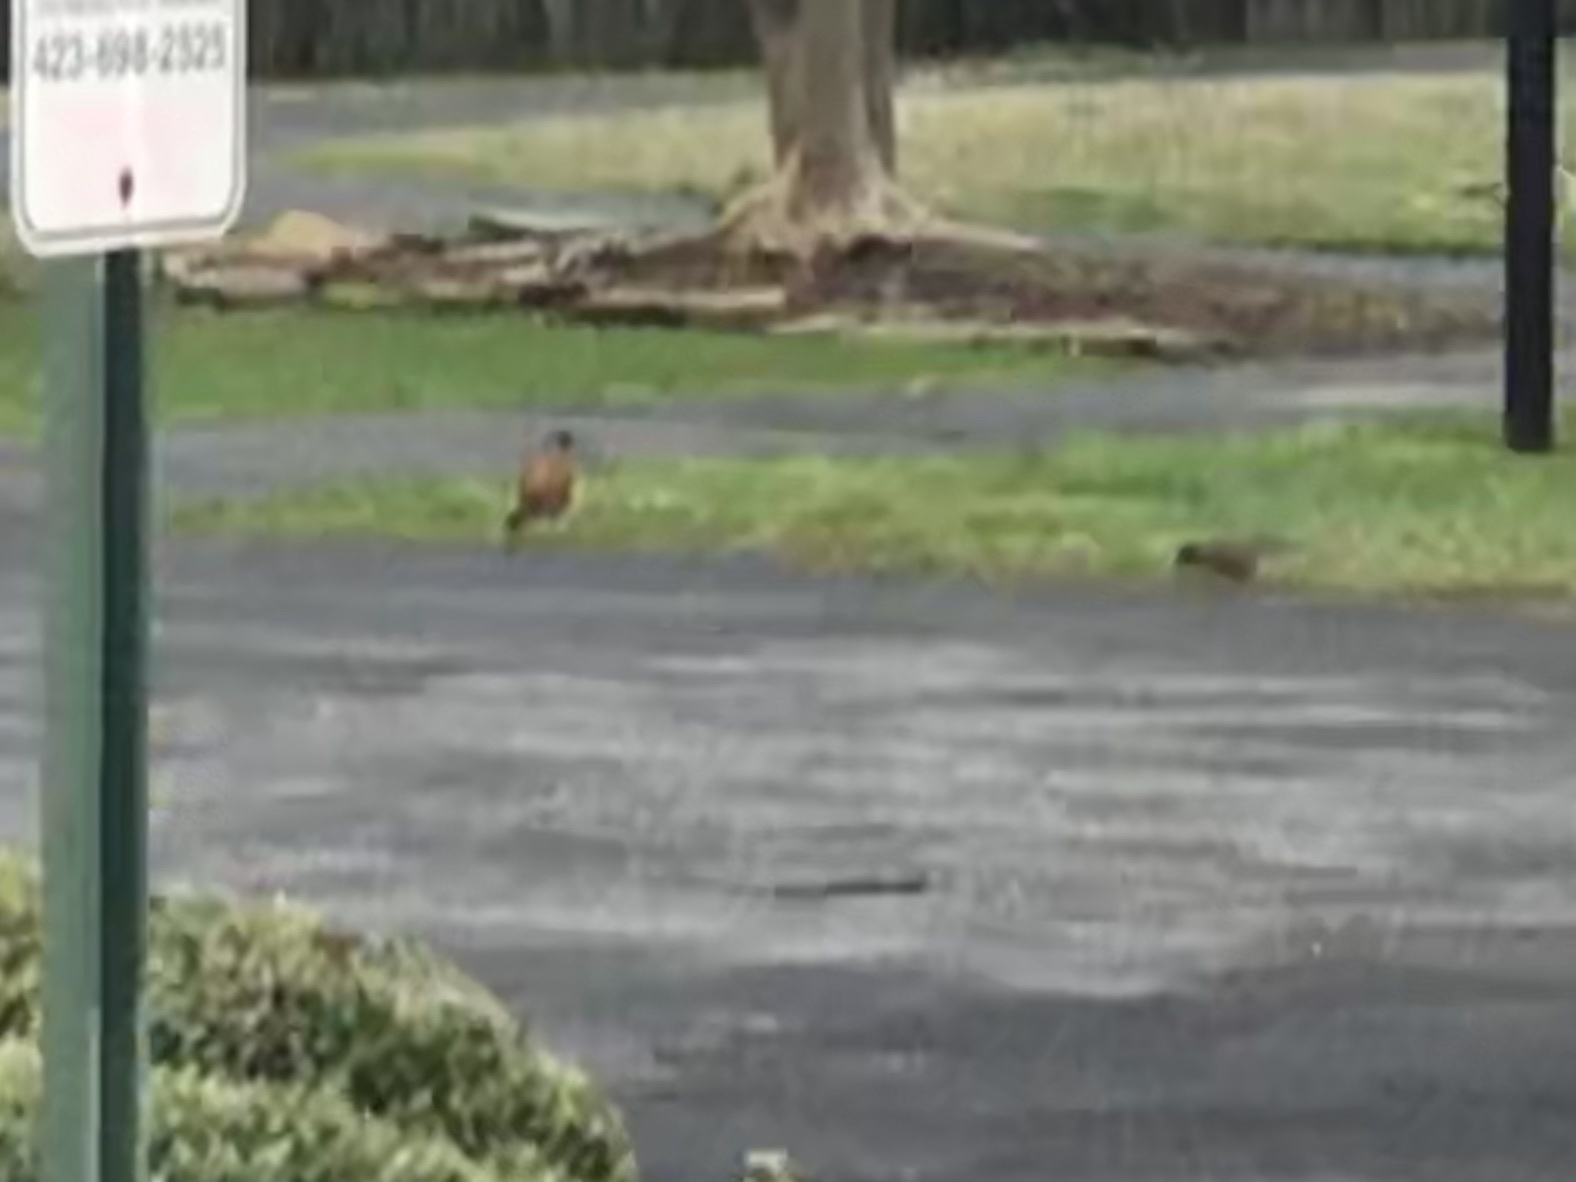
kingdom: Animalia
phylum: Chordata
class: Aves
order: Passeriformes
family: Turdidae
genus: Turdus
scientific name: Turdus migratorius
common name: American robin
